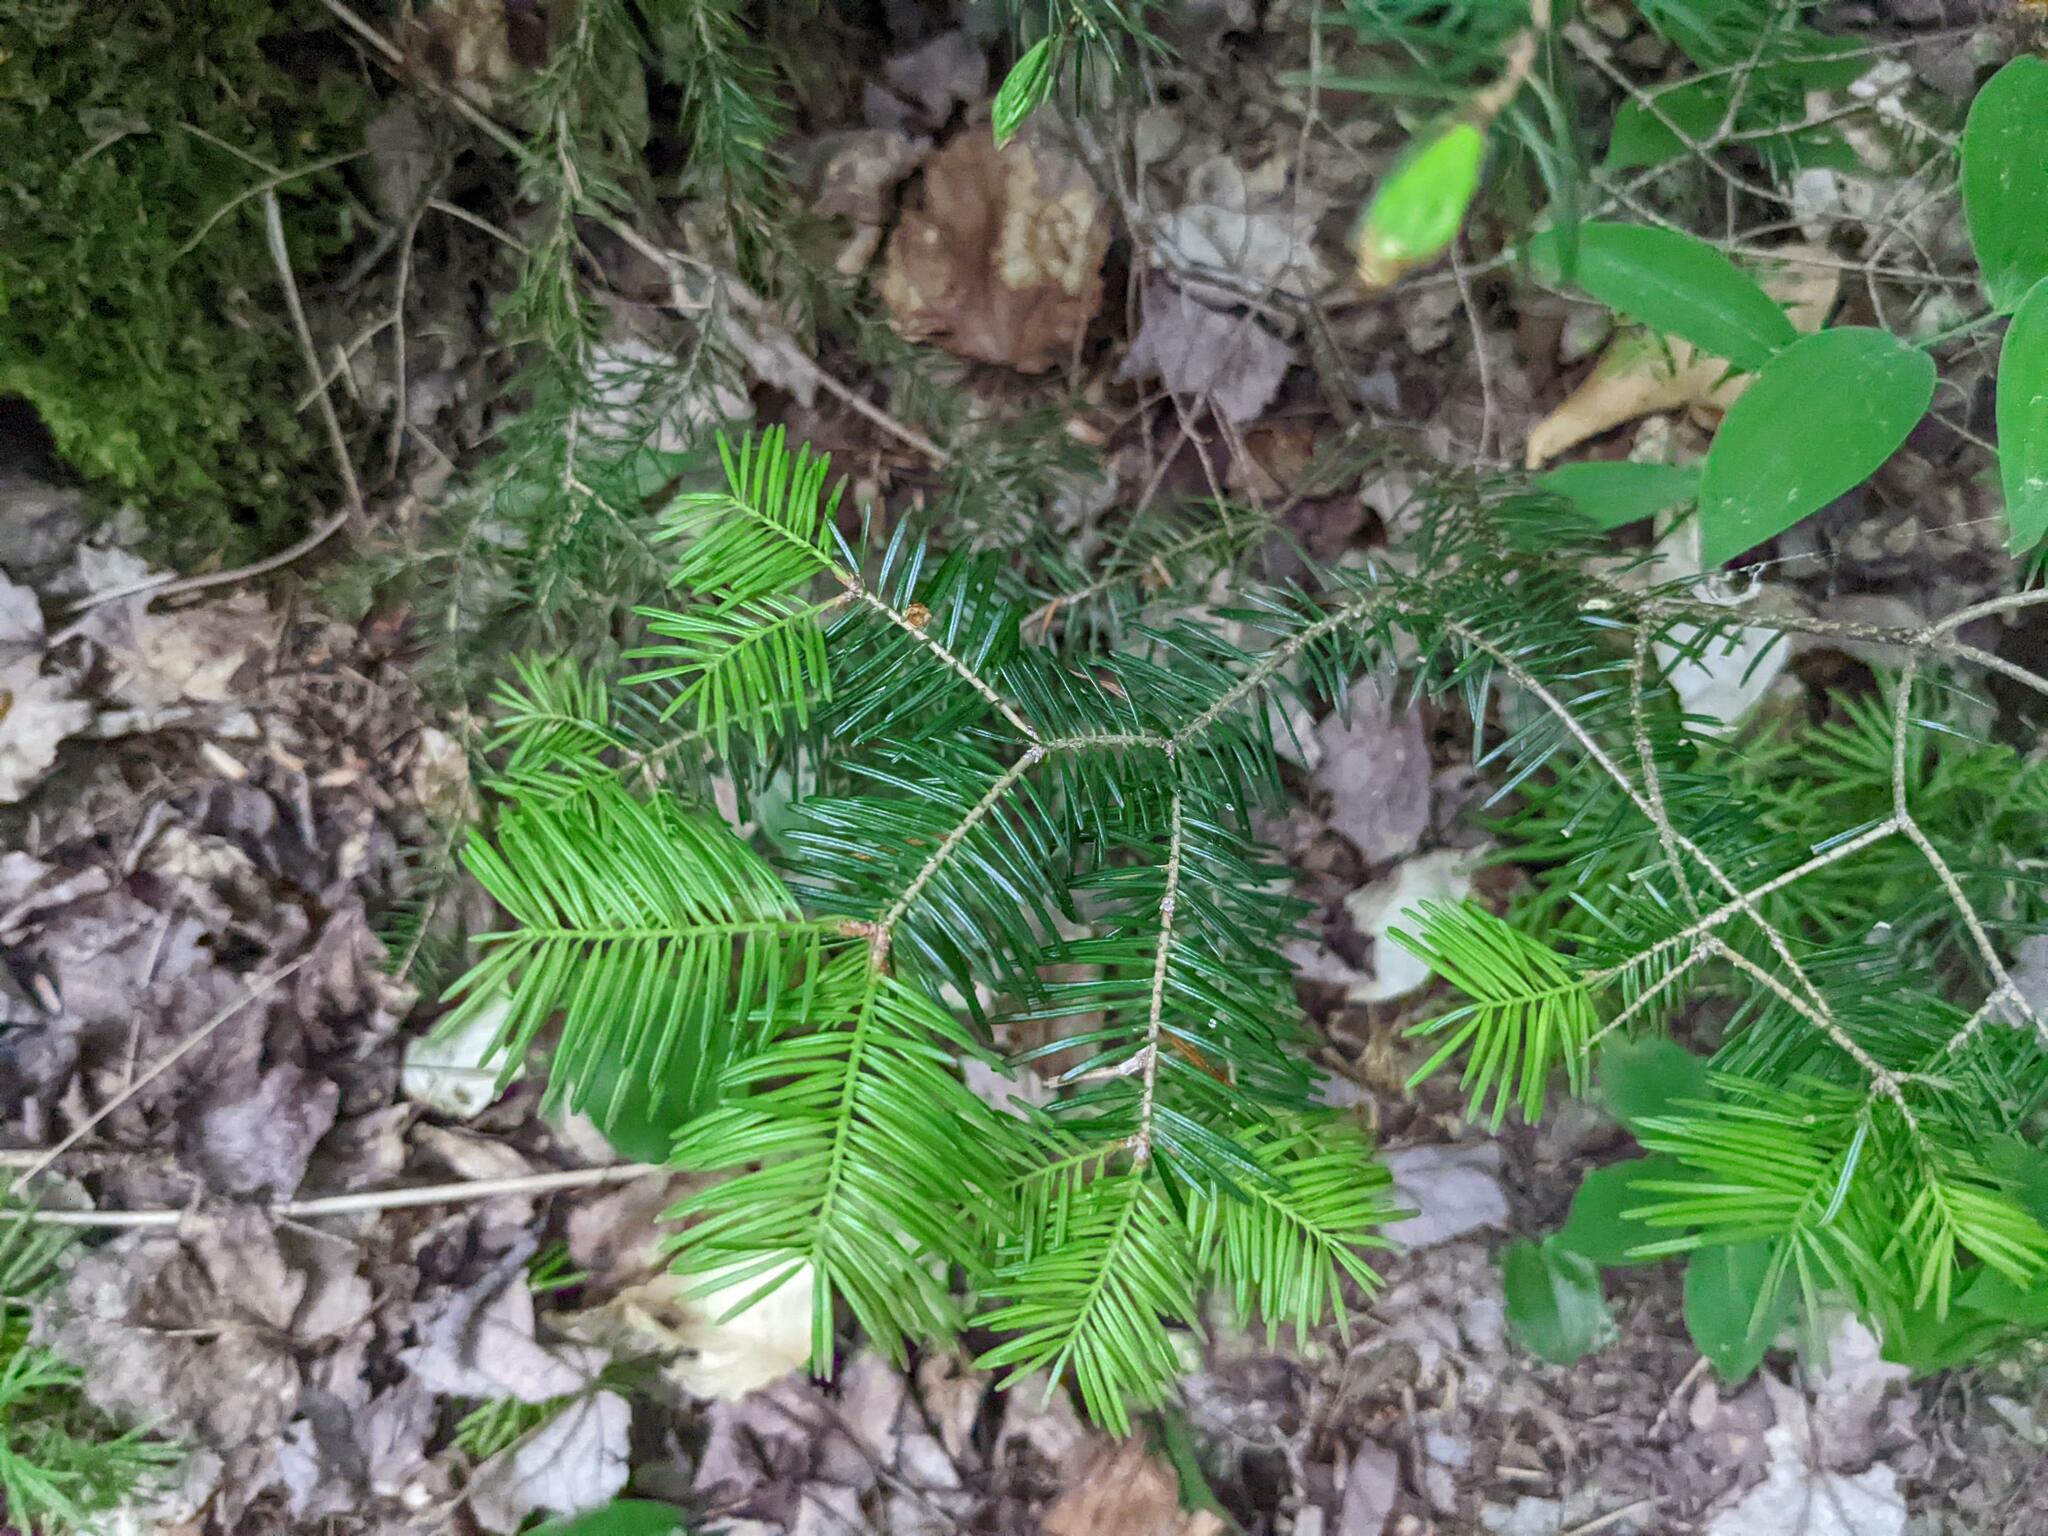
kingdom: Plantae
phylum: Tracheophyta
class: Pinopsida
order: Pinales
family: Pinaceae
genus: Abies
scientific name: Abies balsamea
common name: Balsam fir
